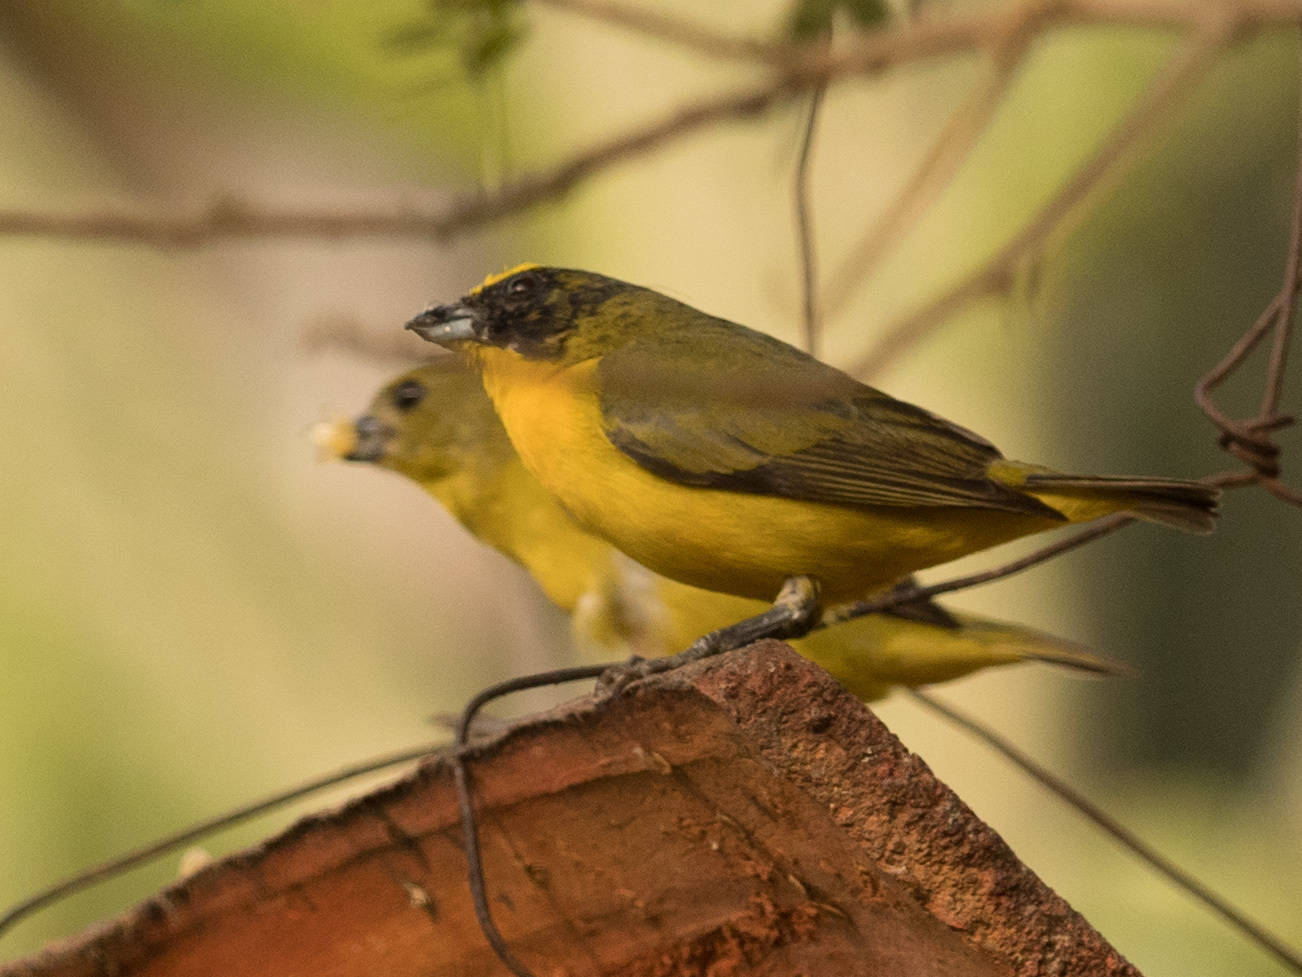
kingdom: Animalia
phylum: Chordata
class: Aves
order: Passeriformes
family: Fringillidae
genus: Euphonia
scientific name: Euphonia laniirostris
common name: Thick-billed euphonia
